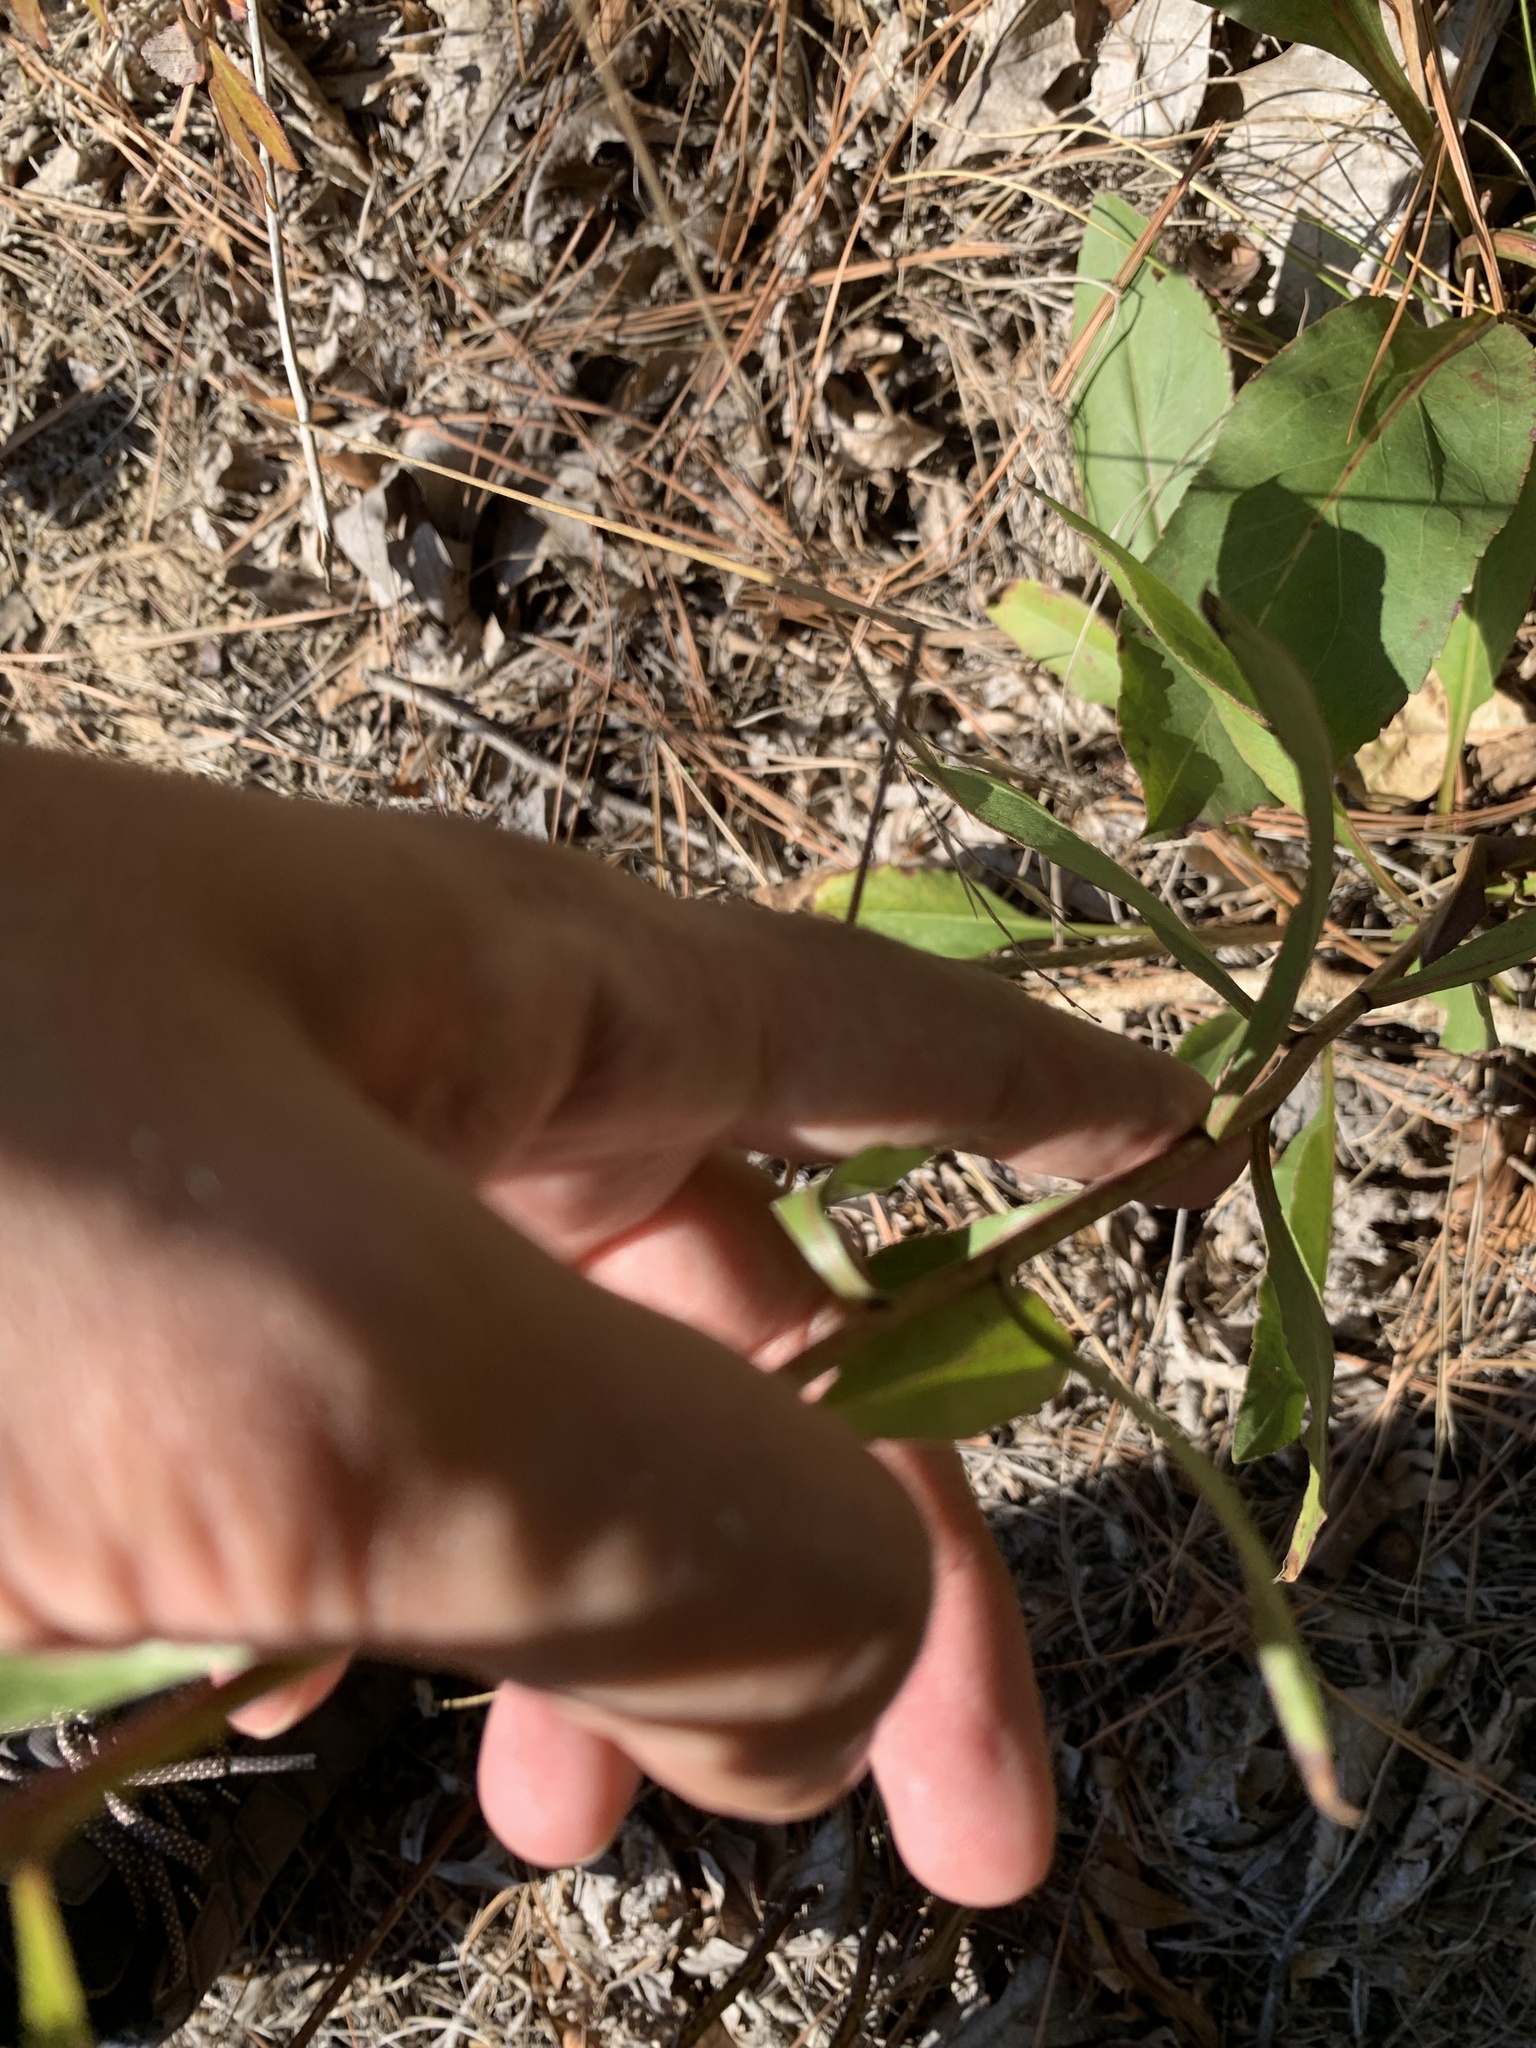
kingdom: Plantae
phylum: Tracheophyta
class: Magnoliopsida
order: Asterales
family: Asteraceae
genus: Solidago
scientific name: Solidago speciosa
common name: Showy goldenrod
